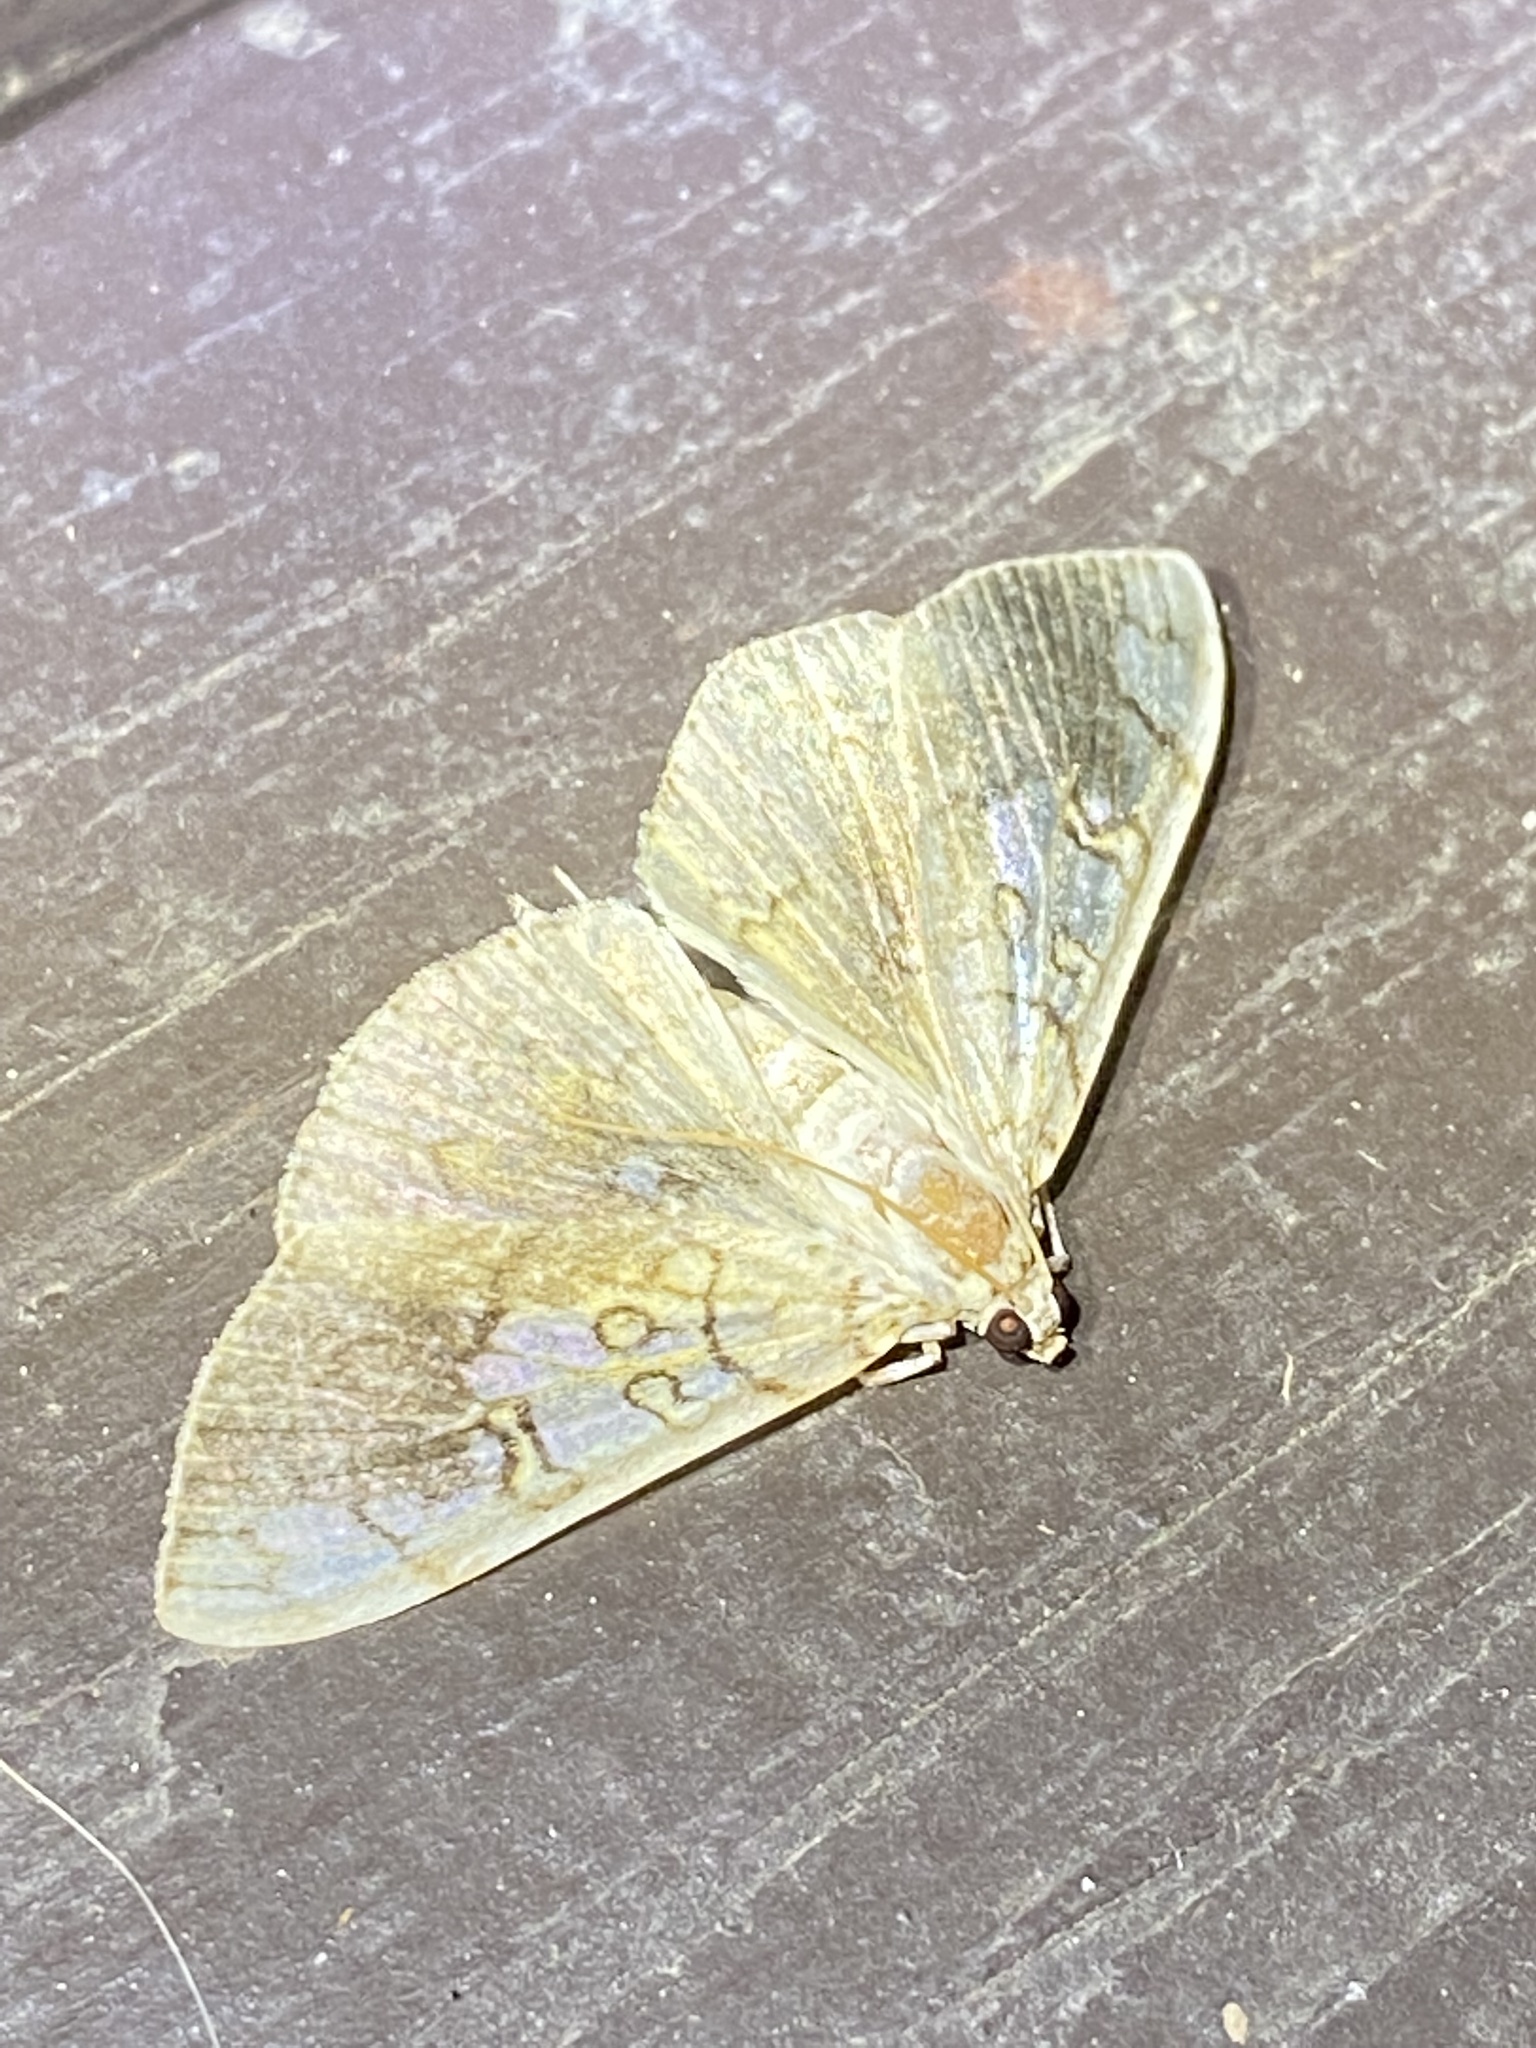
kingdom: Animalia
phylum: Arthropoda
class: Insecta
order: Lepidoptera
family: Crambidae
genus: Pantographa
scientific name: Pantographa limata
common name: Basswood leafroller moth
